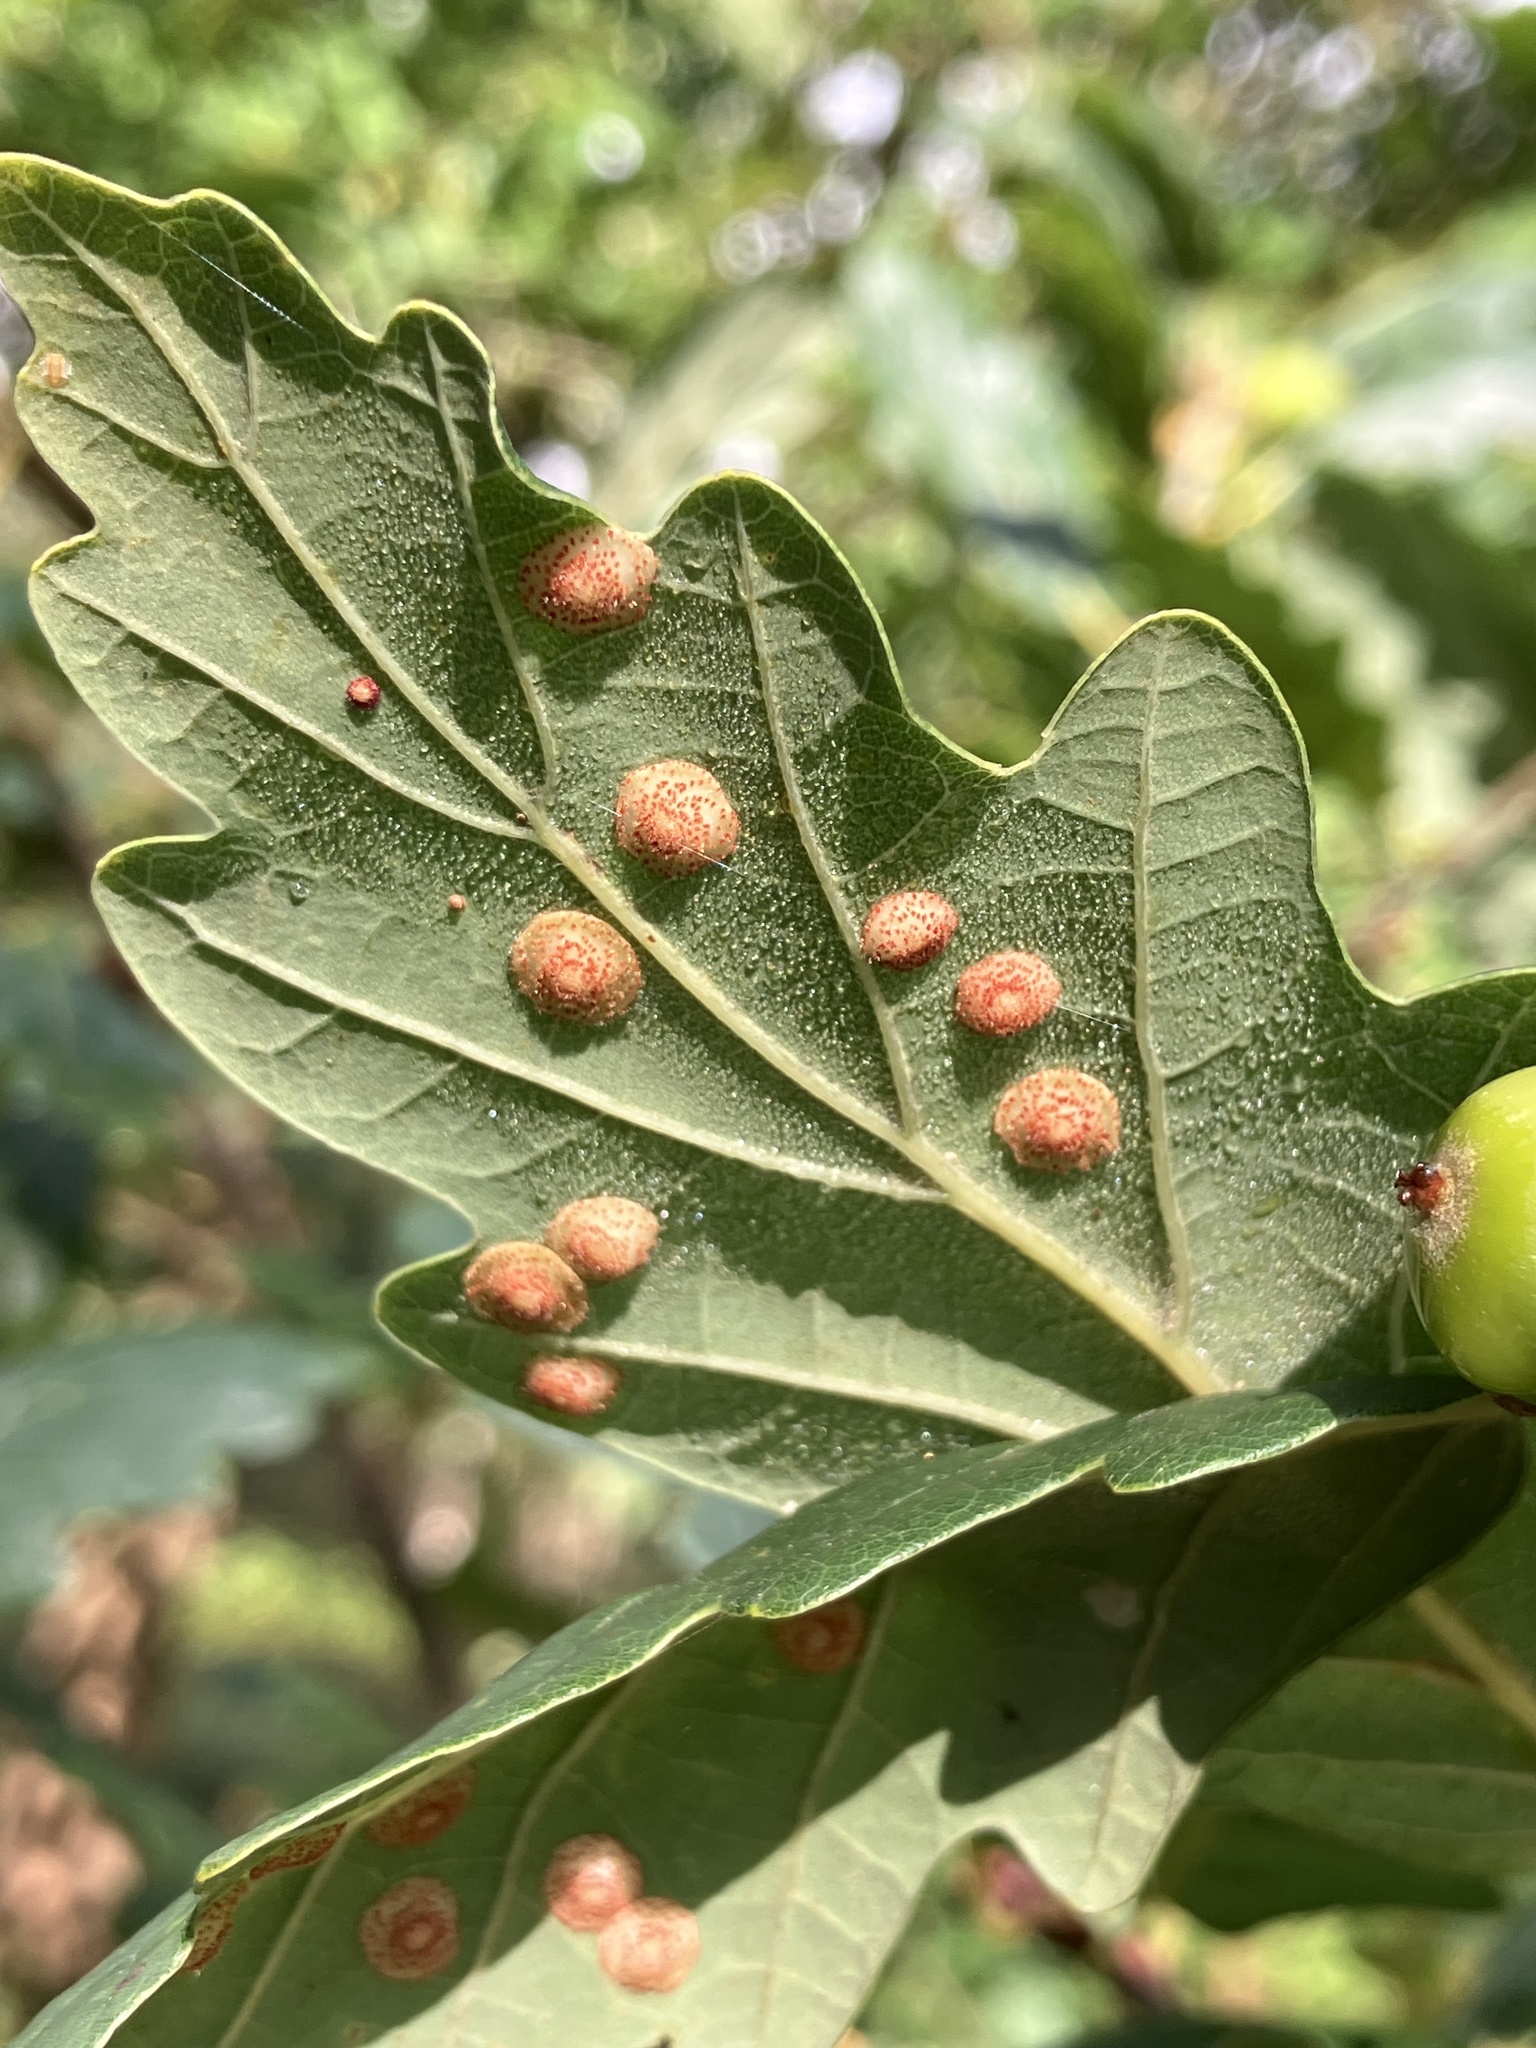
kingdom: Animalia
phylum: Arthropoda
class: Insecta
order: Hymenoptera
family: Cynipidae
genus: Neuroterus
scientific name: Neuroterus quercusbaccarum
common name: Common spangle gall
